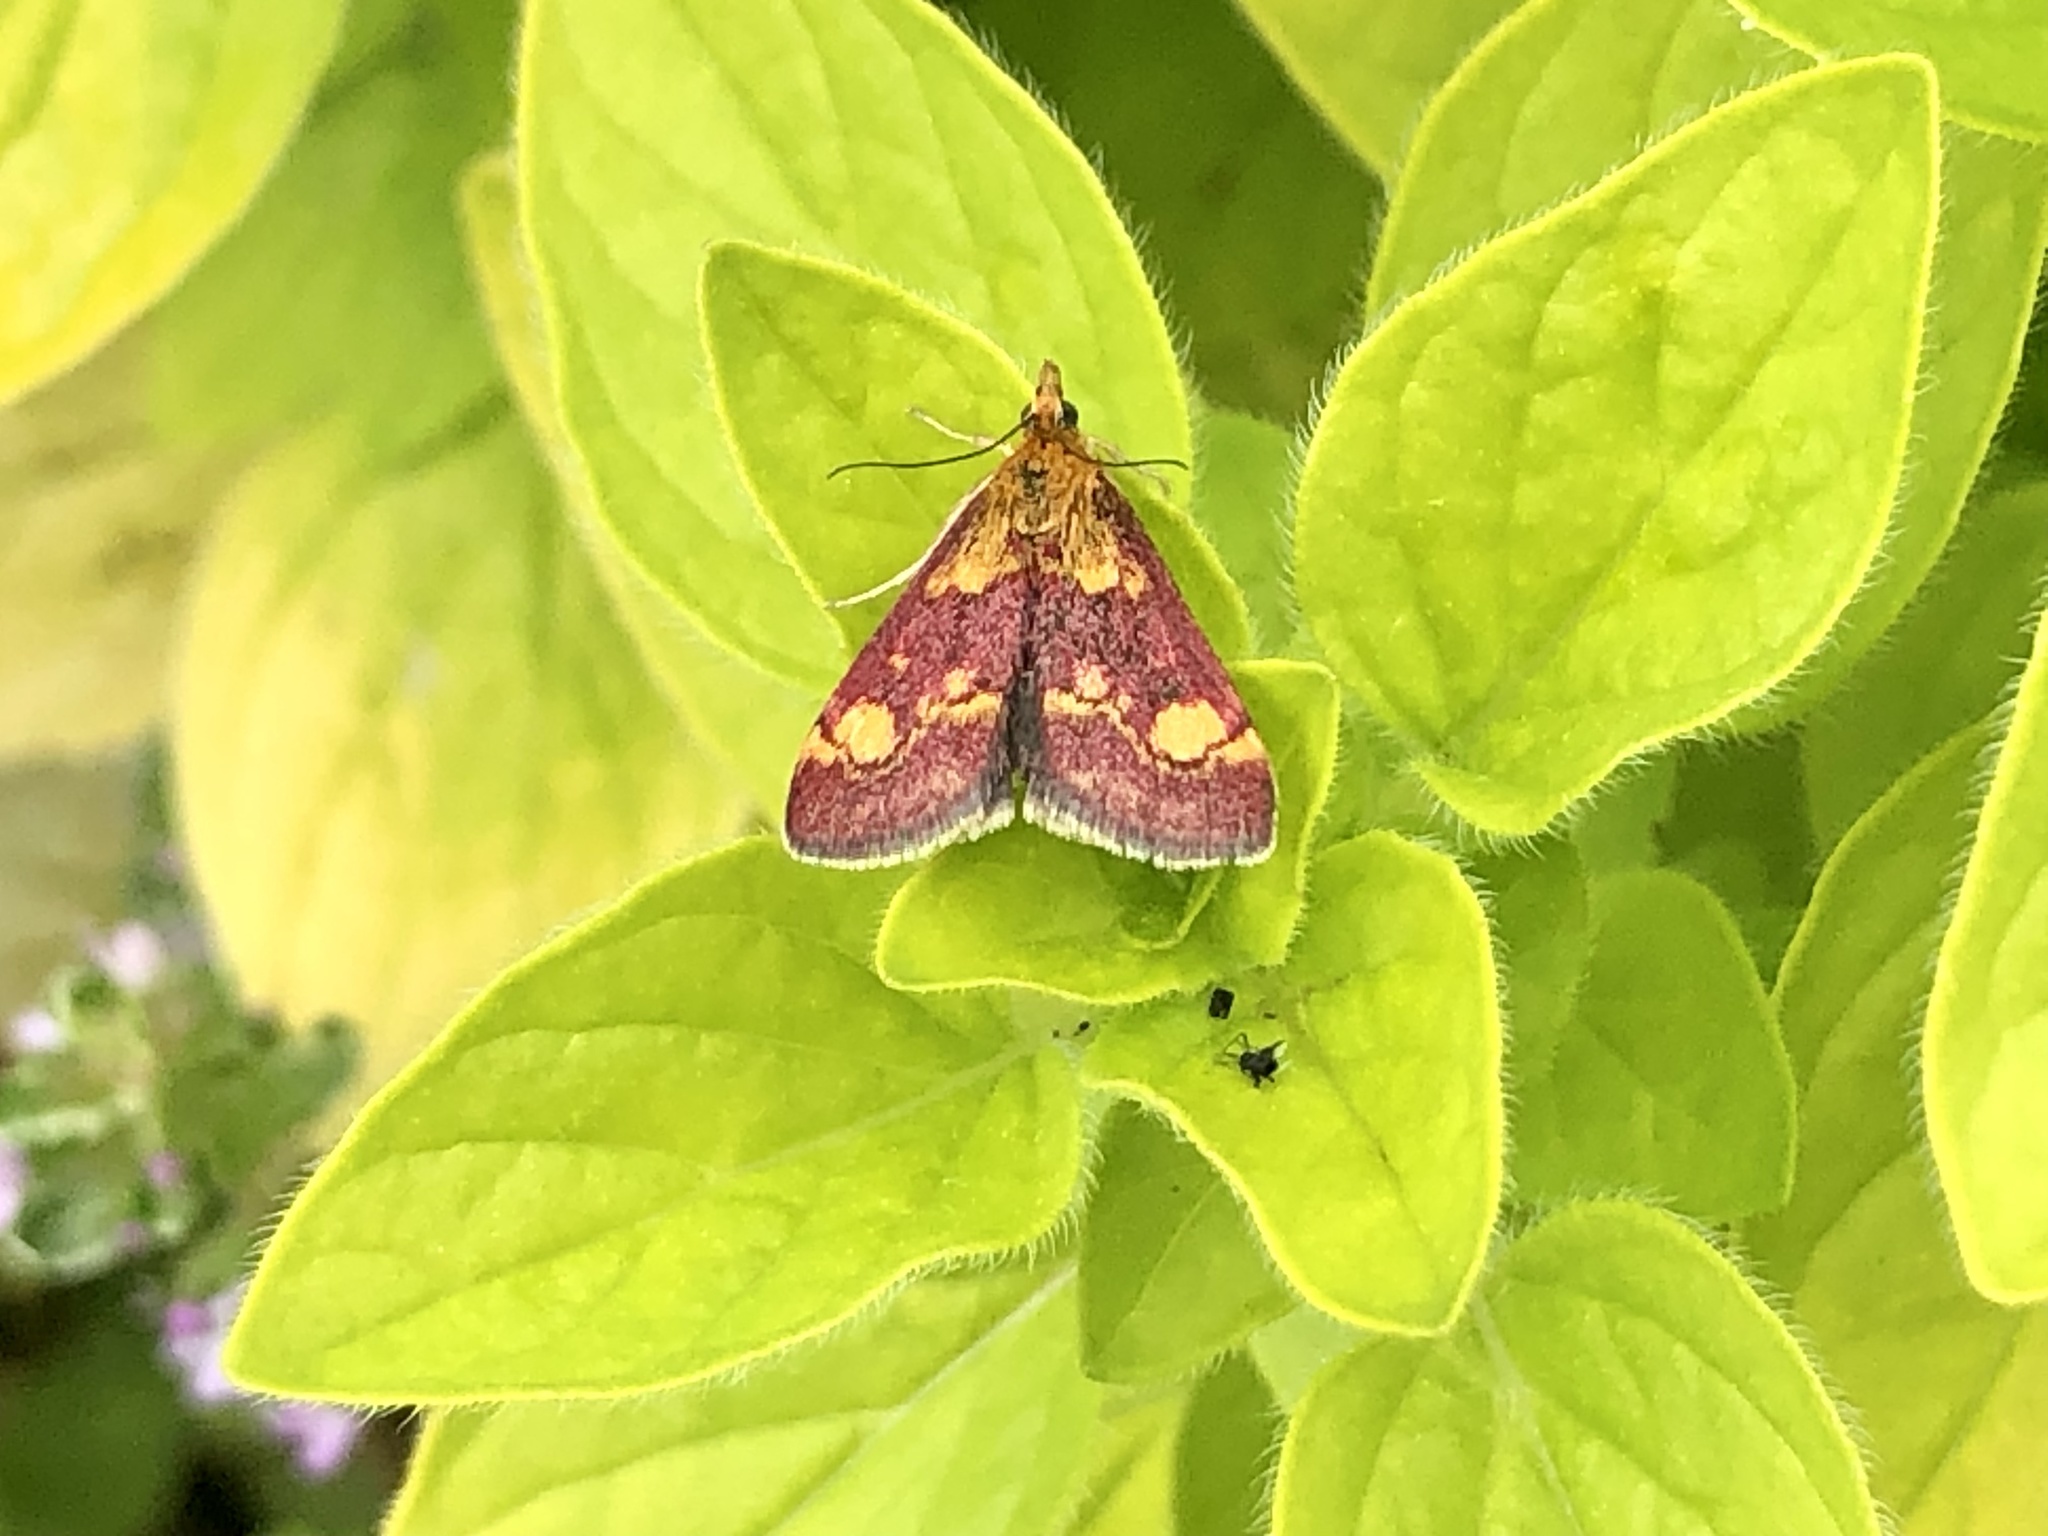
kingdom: Animalia
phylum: Arthropoda
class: Insecta
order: Lepidoptera
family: Crambidae
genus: Pyrausta
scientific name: Pyrausta aurata
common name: Small purple & gold
